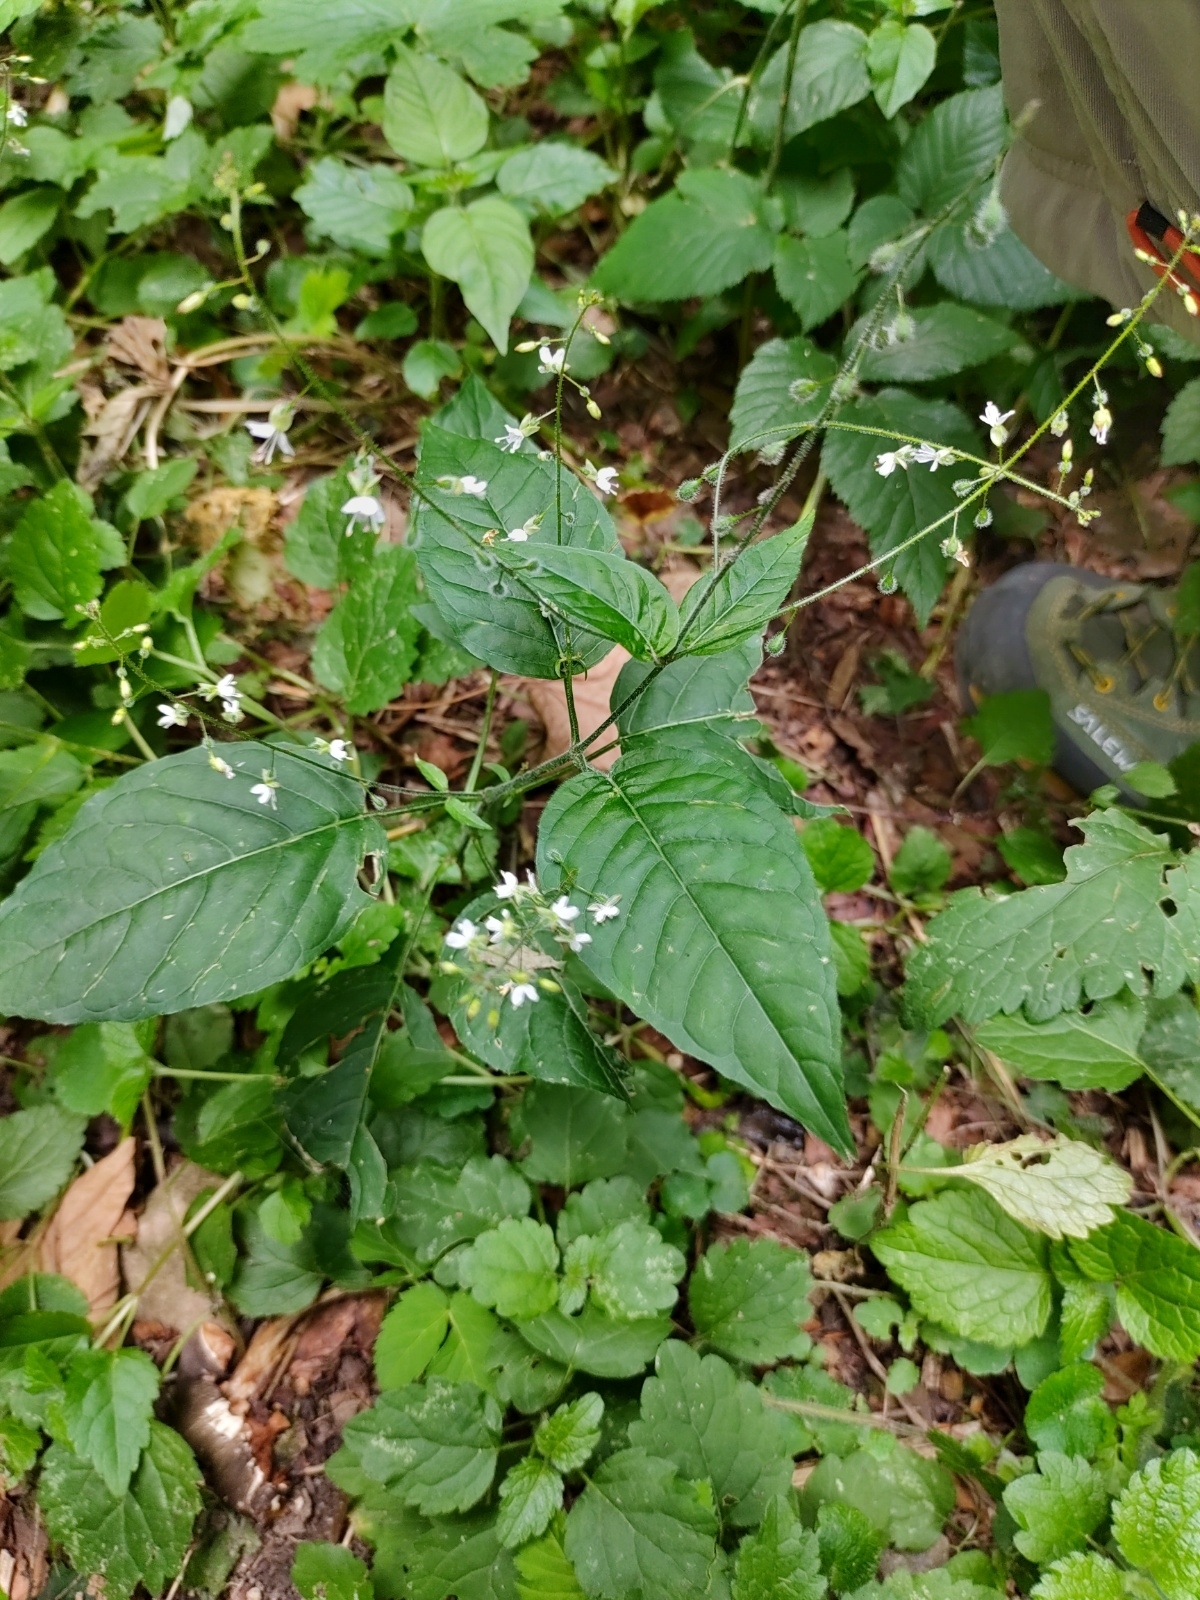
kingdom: Plantae
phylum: Tracheophyta
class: Magnoliopsida
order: Myrtales
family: Onagraceae
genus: Circaea
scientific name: Circaea lutetiana
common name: Enchanter's-nightshade
